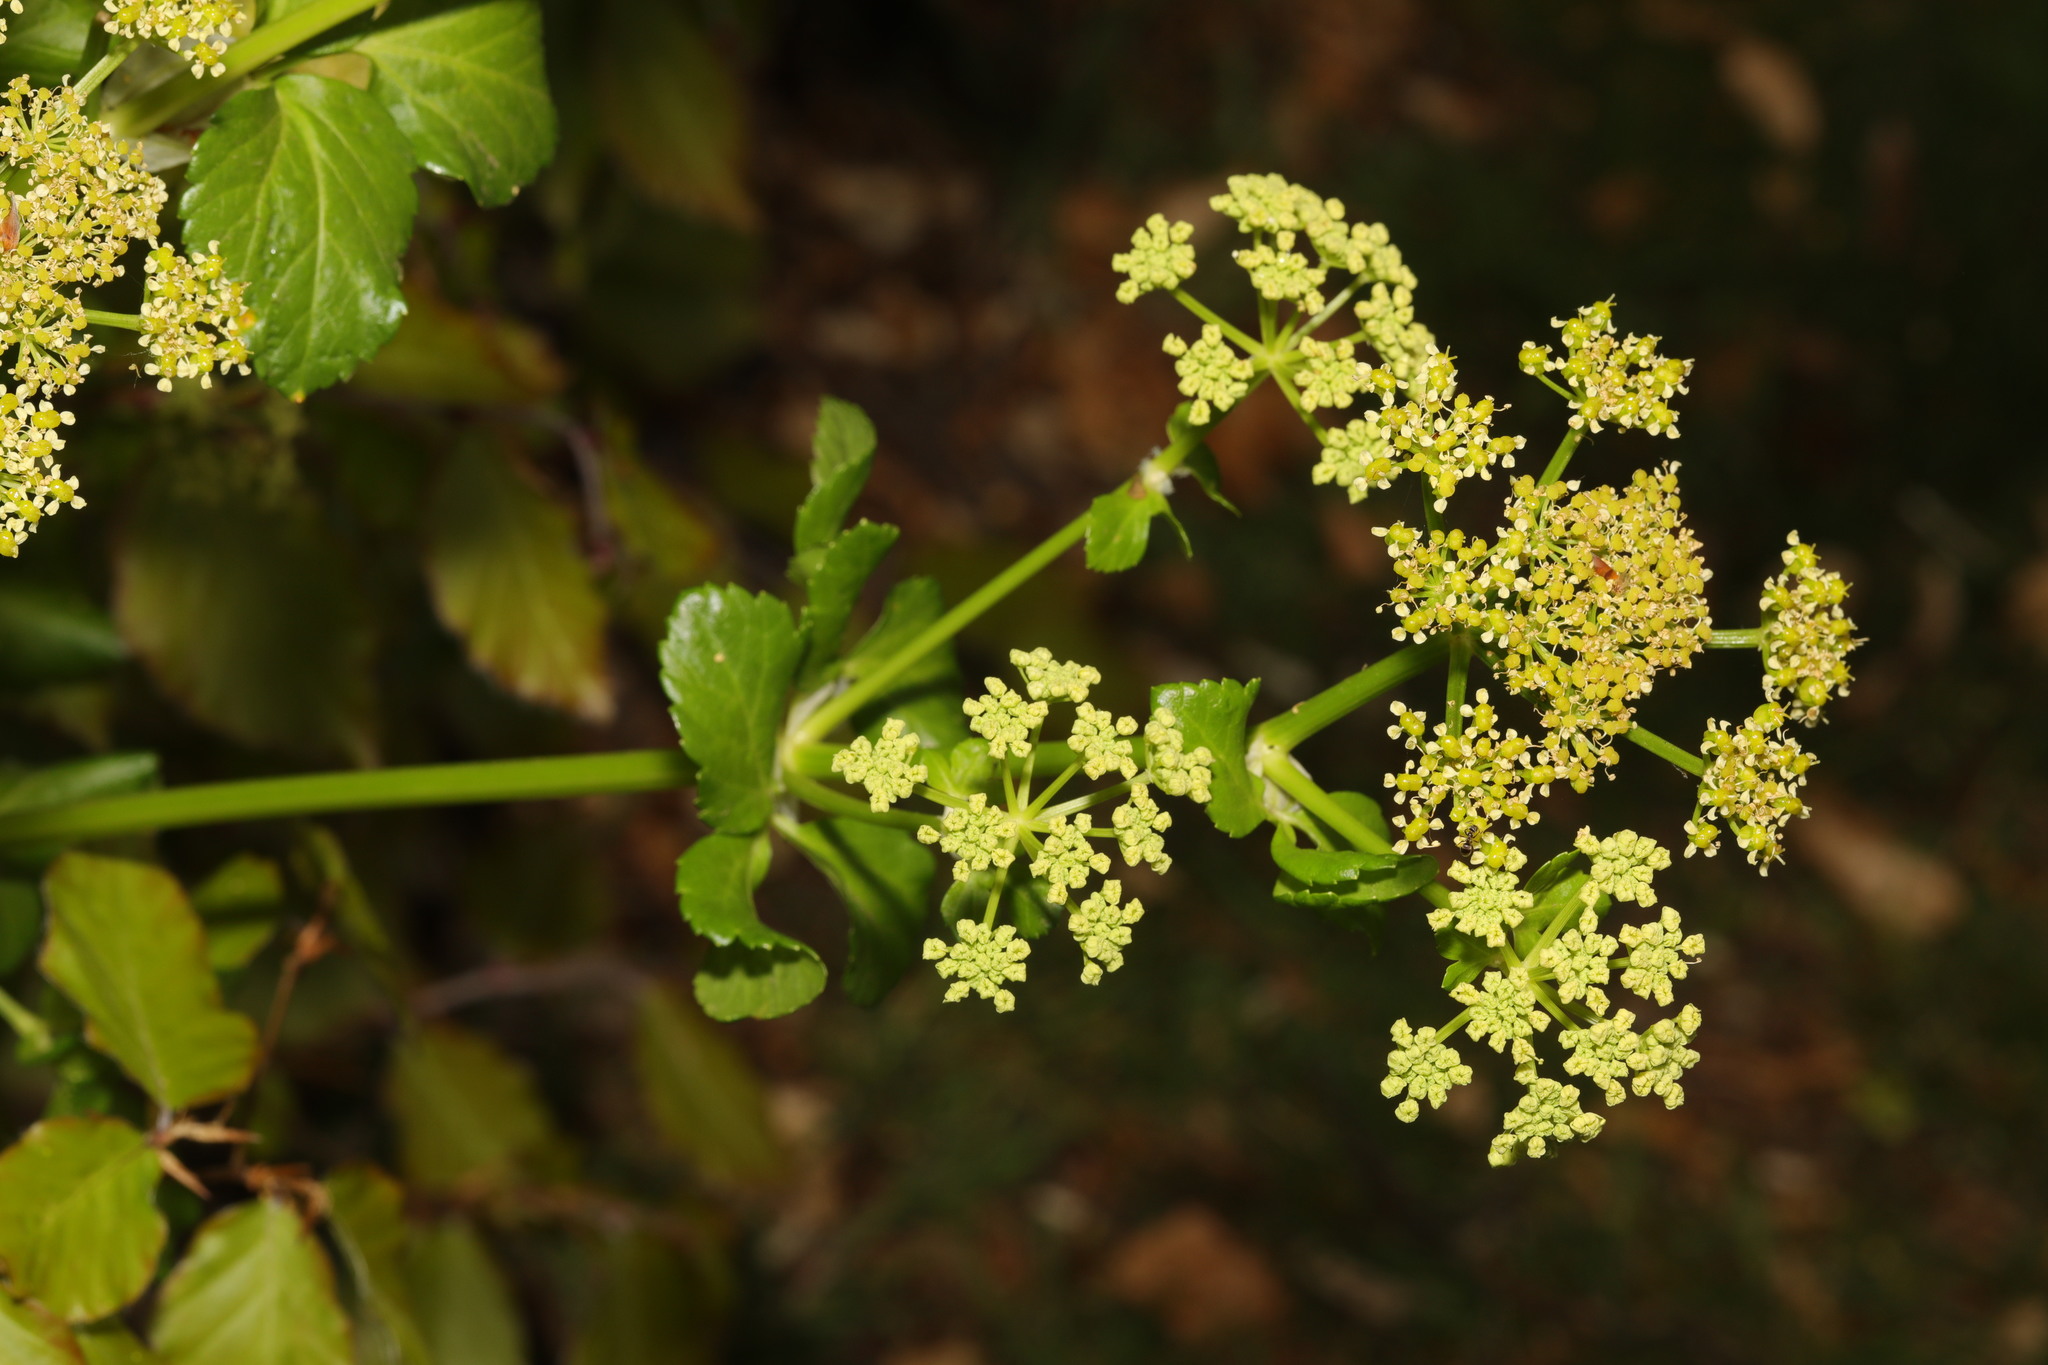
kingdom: Plantae
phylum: Tracheophyta
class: Magnoliopsida
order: Apiales
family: Apiaceae
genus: Smyrnium
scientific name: Smyrnium olusatrum
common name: Alexanders
